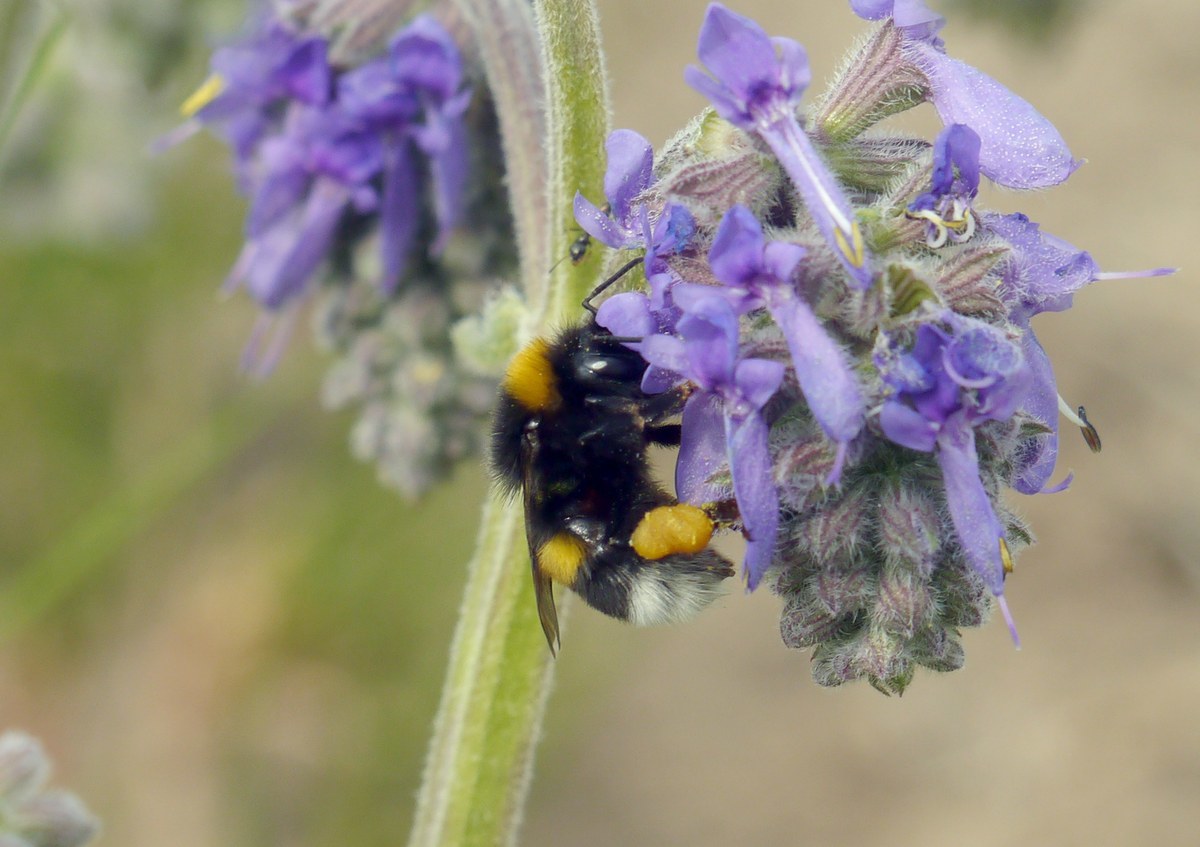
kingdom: Animalia
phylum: Arthropoda
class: Insecta
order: Hymenoptera
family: Apidae
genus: Bombus
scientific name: Bombus
